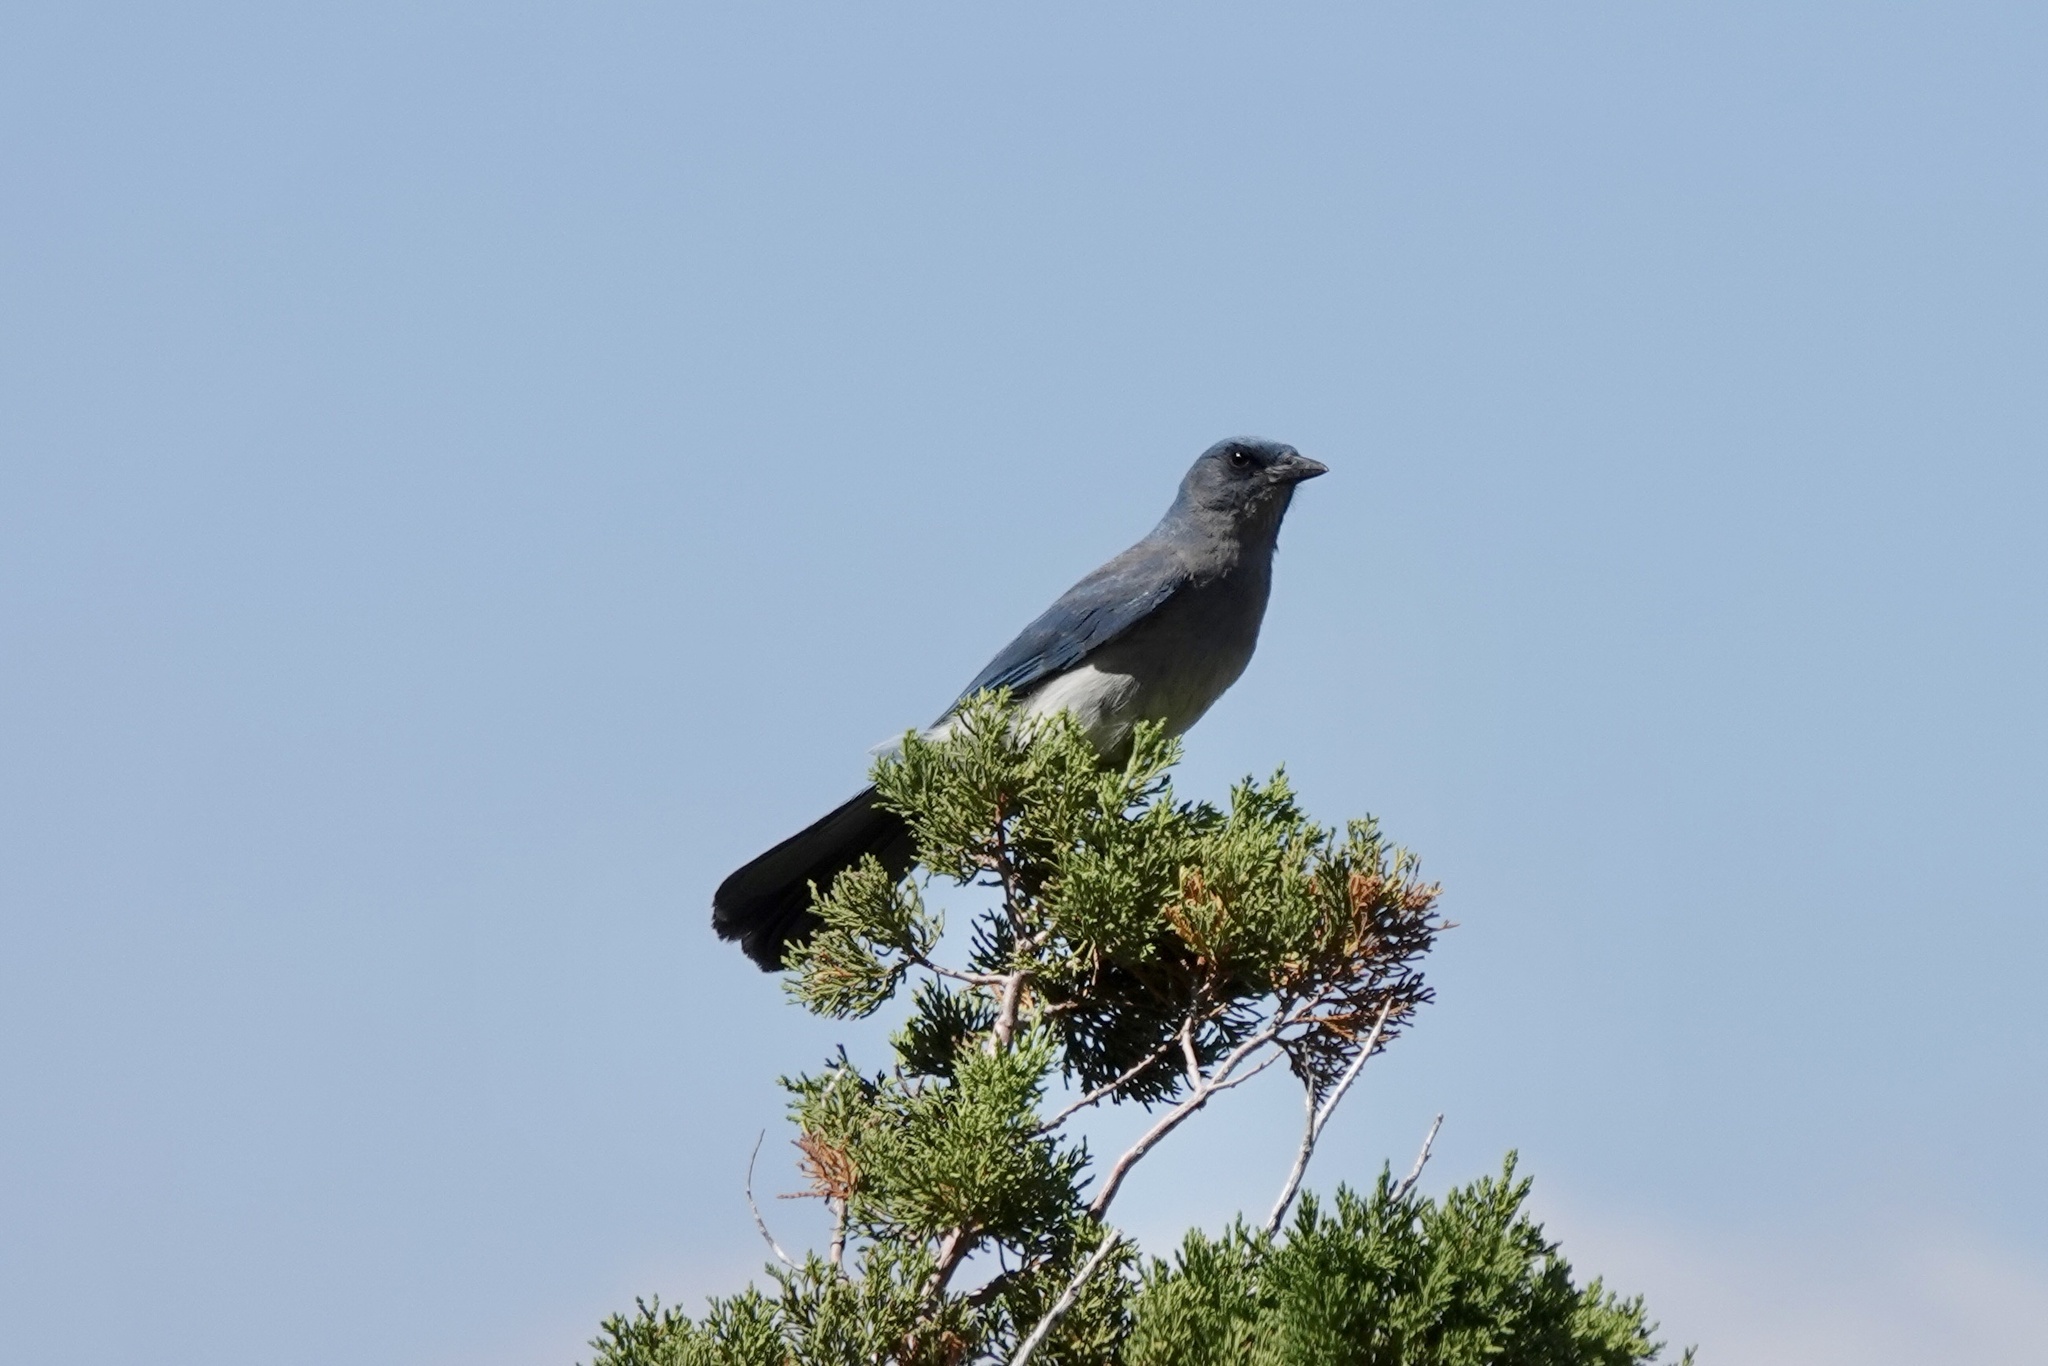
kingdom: Animalia
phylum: Chordata
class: Aves
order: Passeriformes
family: Corvidae
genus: Aphelocoma
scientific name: Aphelocoma wollweberi
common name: Mexican jay
